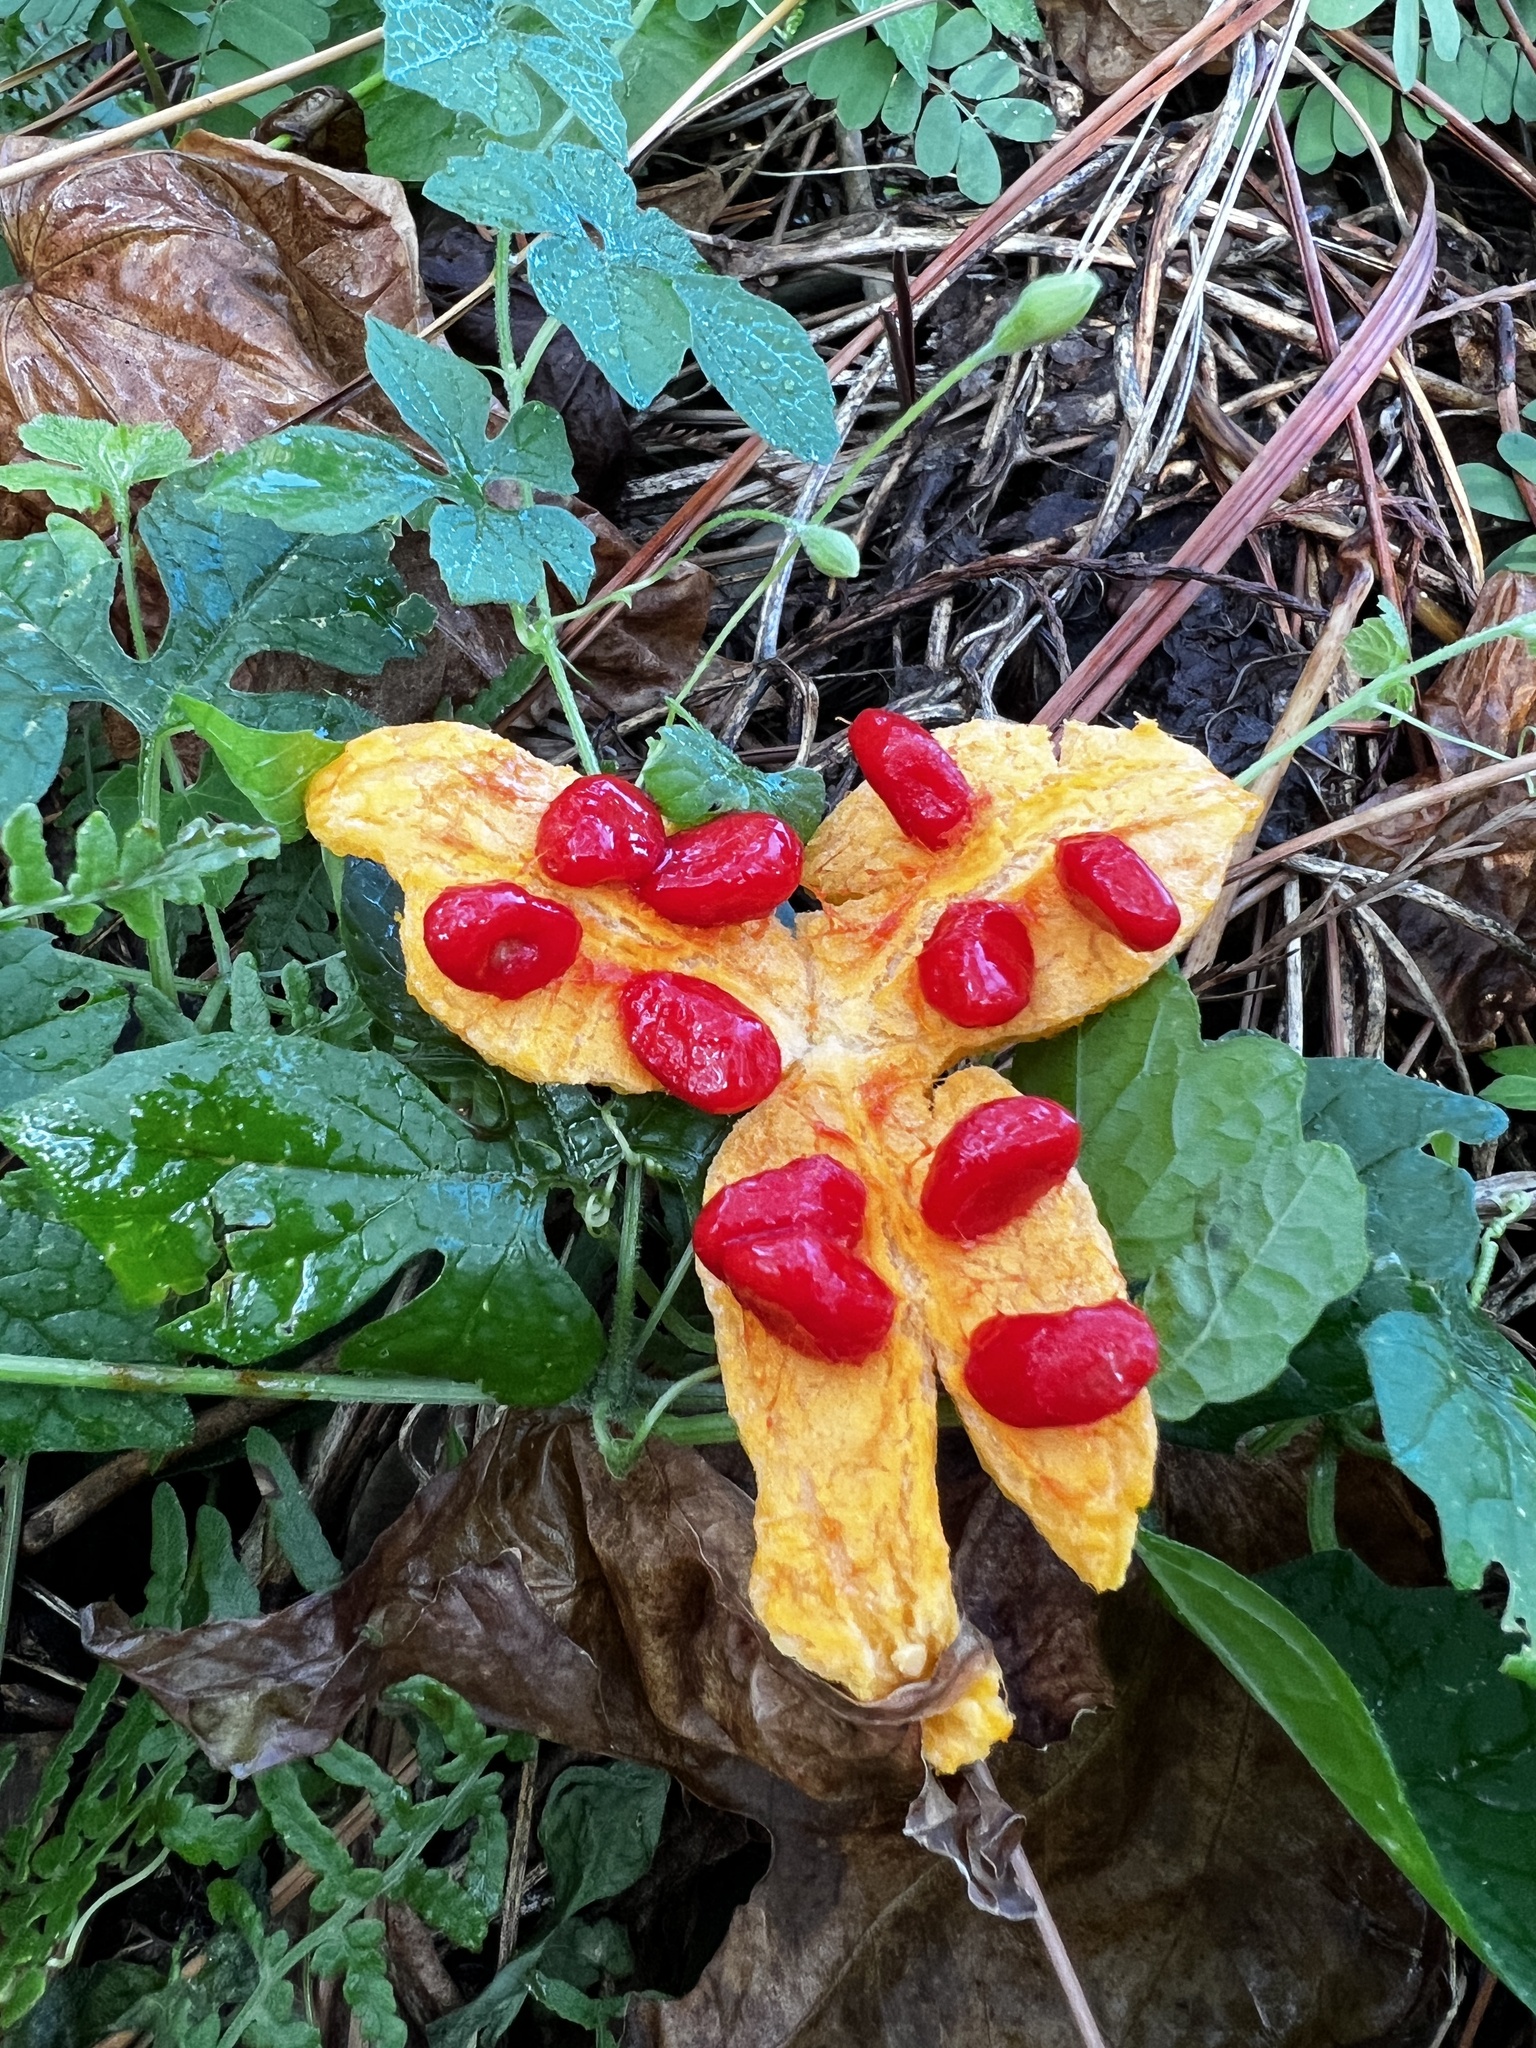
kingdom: Plantae
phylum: Tracheophyta
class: Magnoliopsida
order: Cucurbitales
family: Cucurbitaceae
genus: Momordica
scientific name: Momordica charantia
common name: Balsampear
